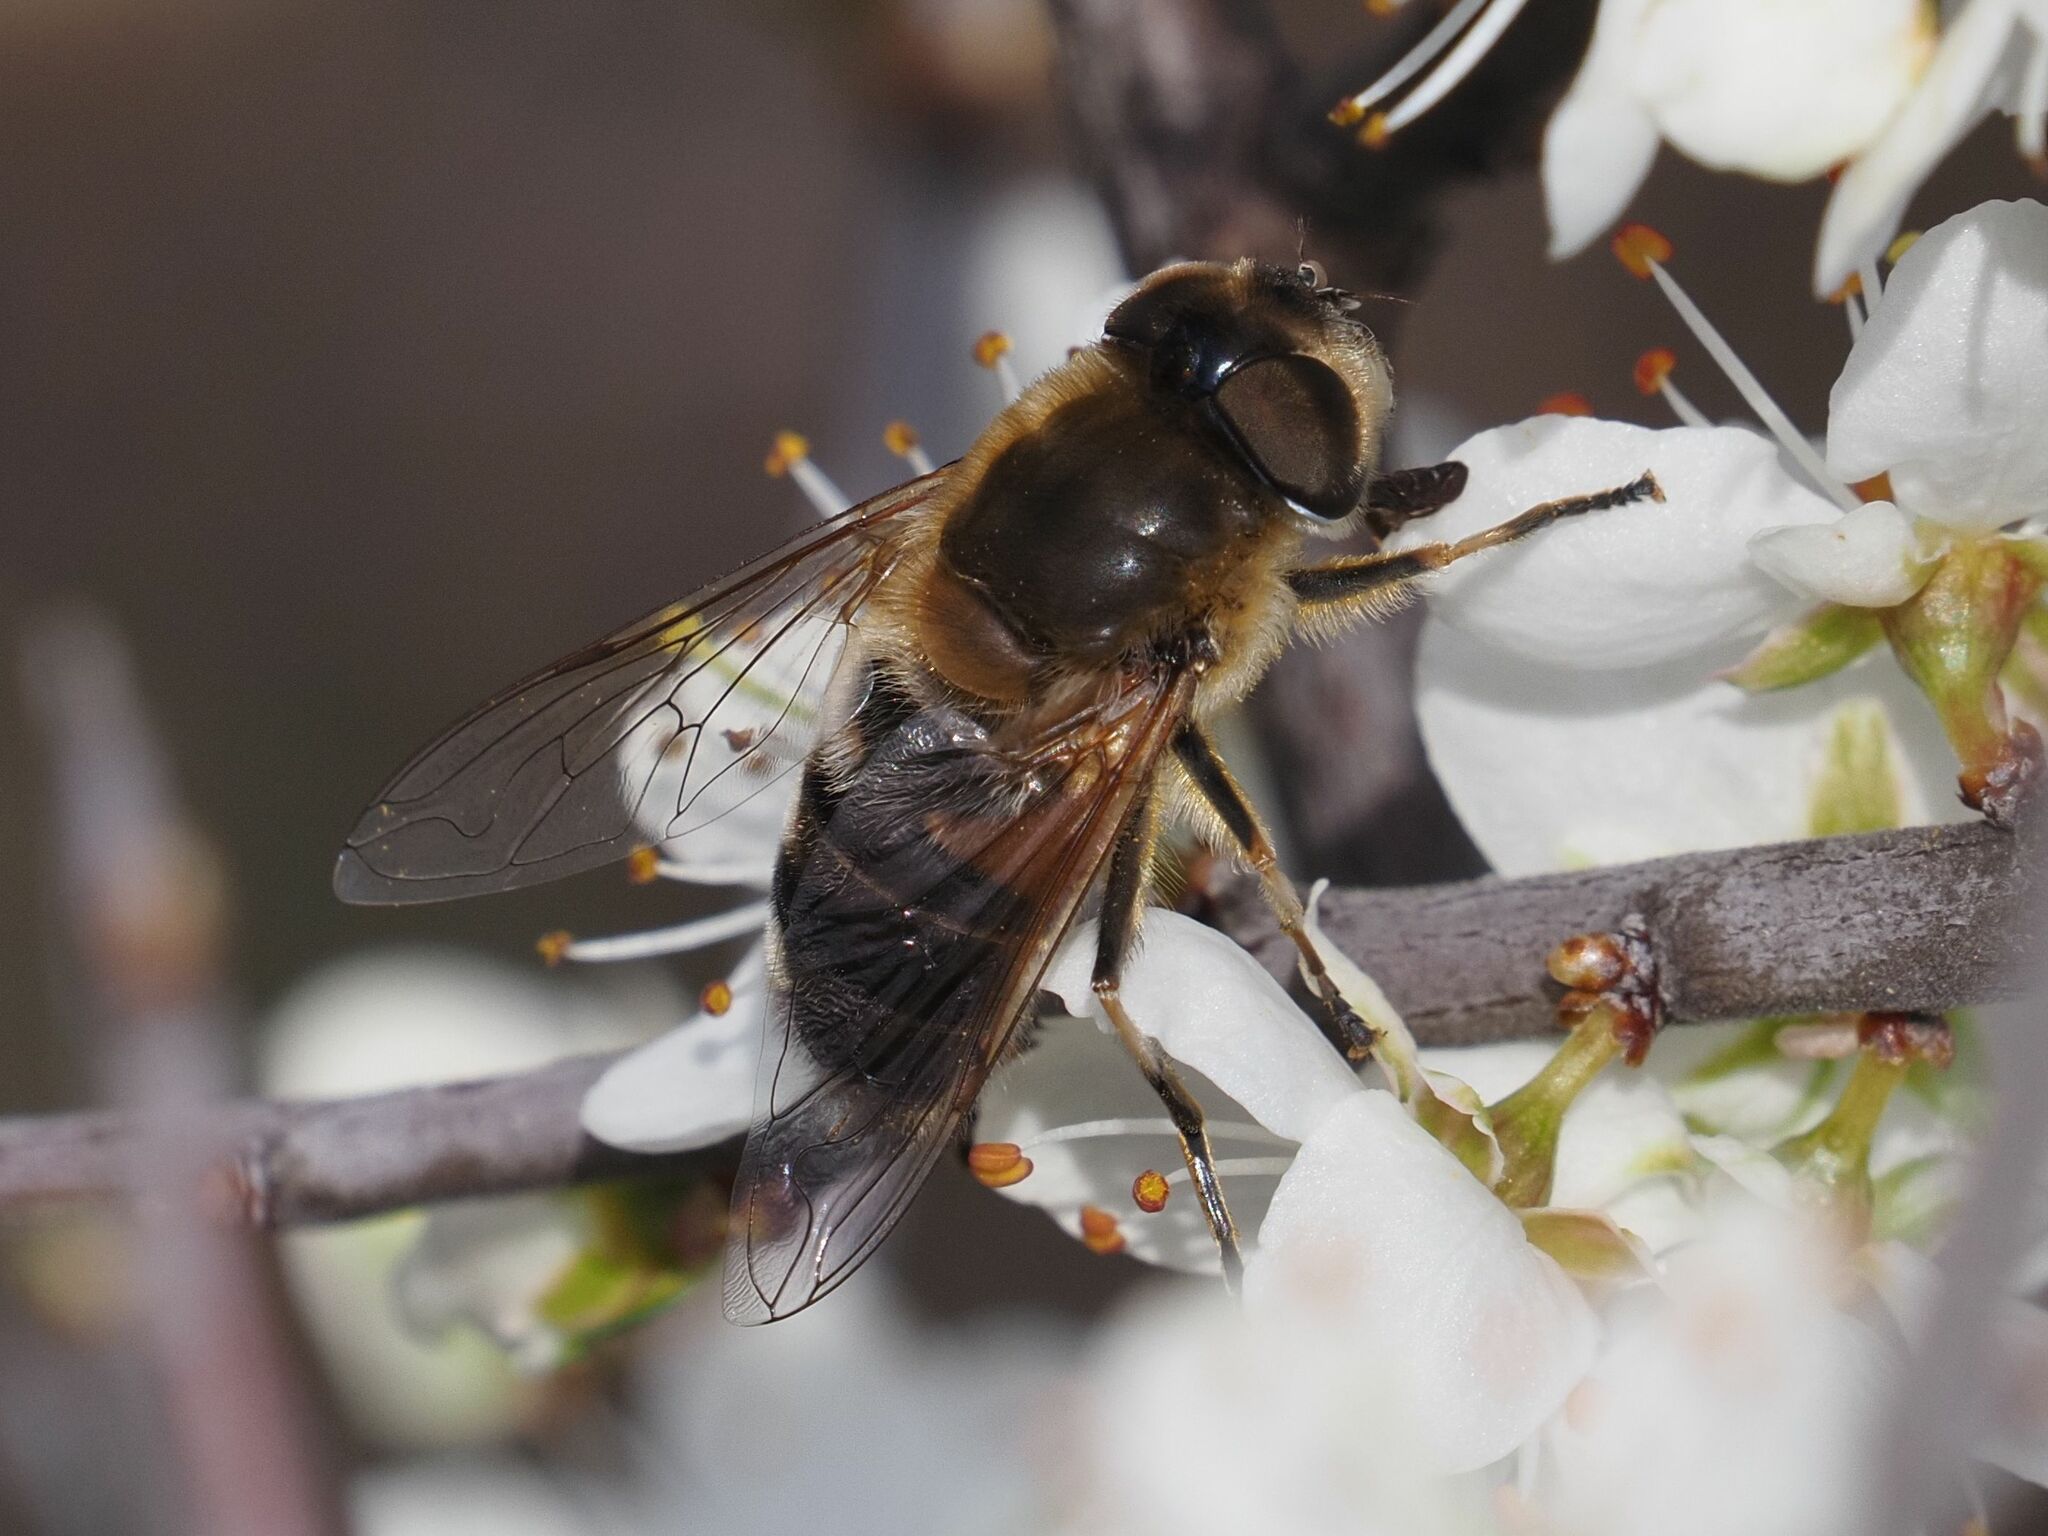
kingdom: Animalia
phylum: Arthropoda
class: Insecta
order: Diptera
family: Syrphidae
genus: Eristalis
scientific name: Eristalis pertinax
